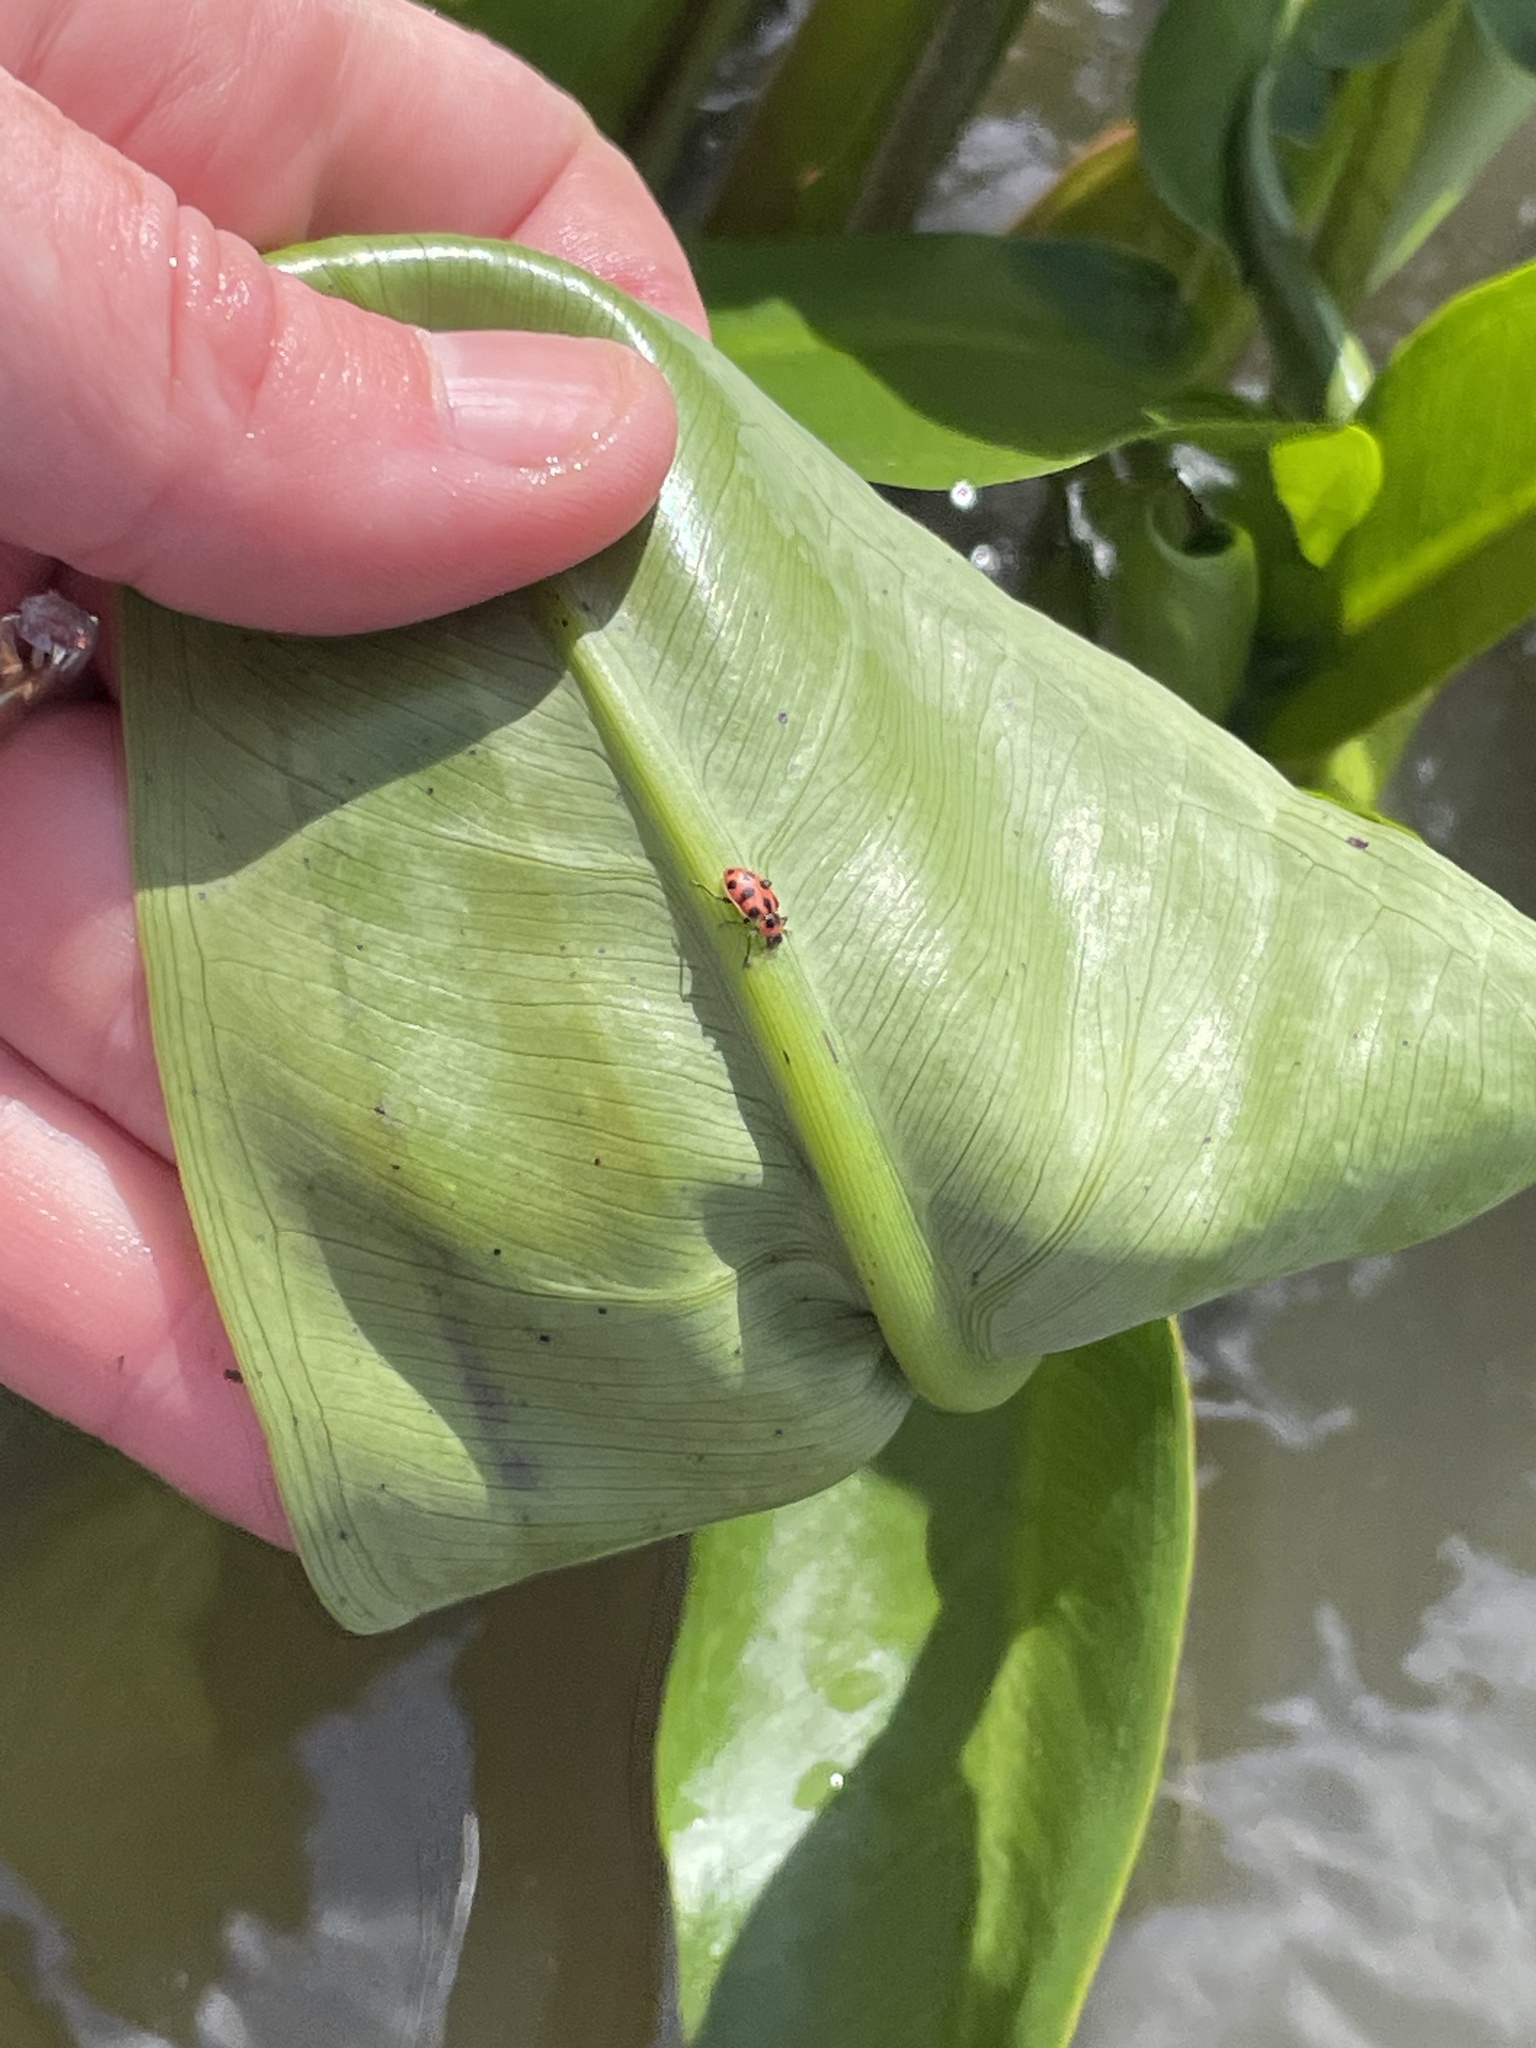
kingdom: Animalia
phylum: Arthropoda
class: Insecta
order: Coleoptera
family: Coccinellidae
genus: Coleomegilla
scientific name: Coleomegilla maculata
